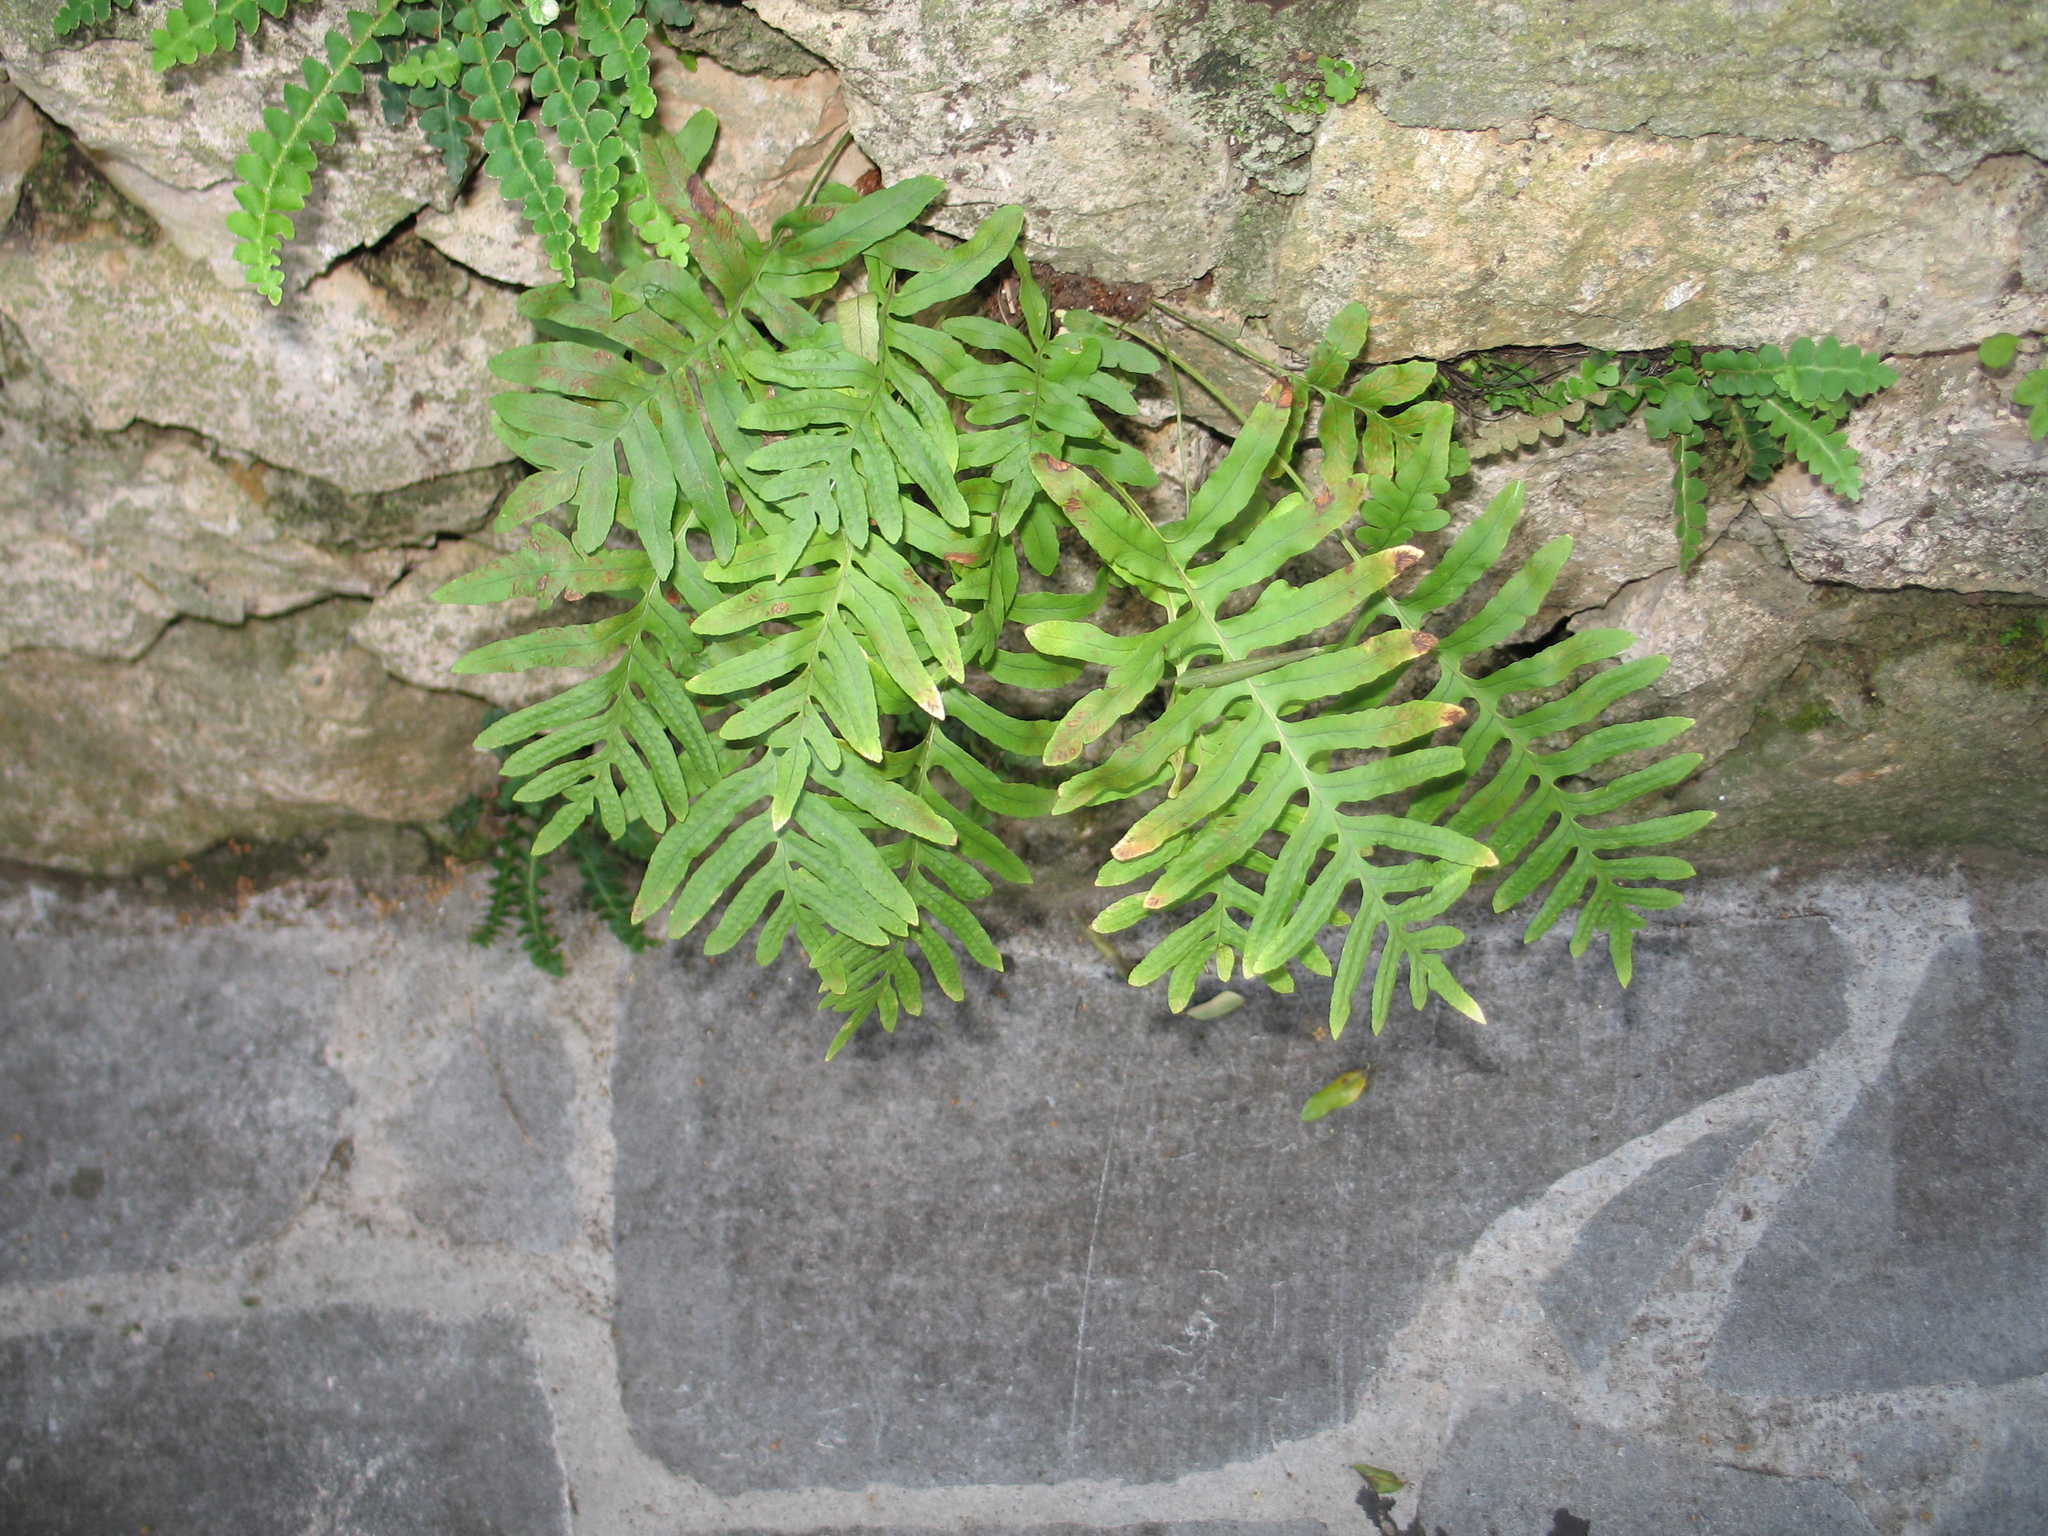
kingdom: Plantae
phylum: Tracheophyta
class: Polypodiopsida
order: Polypodiales
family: Polypodiaceae
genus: Polypodium
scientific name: Polypodium cambricum
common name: Southern polypody
